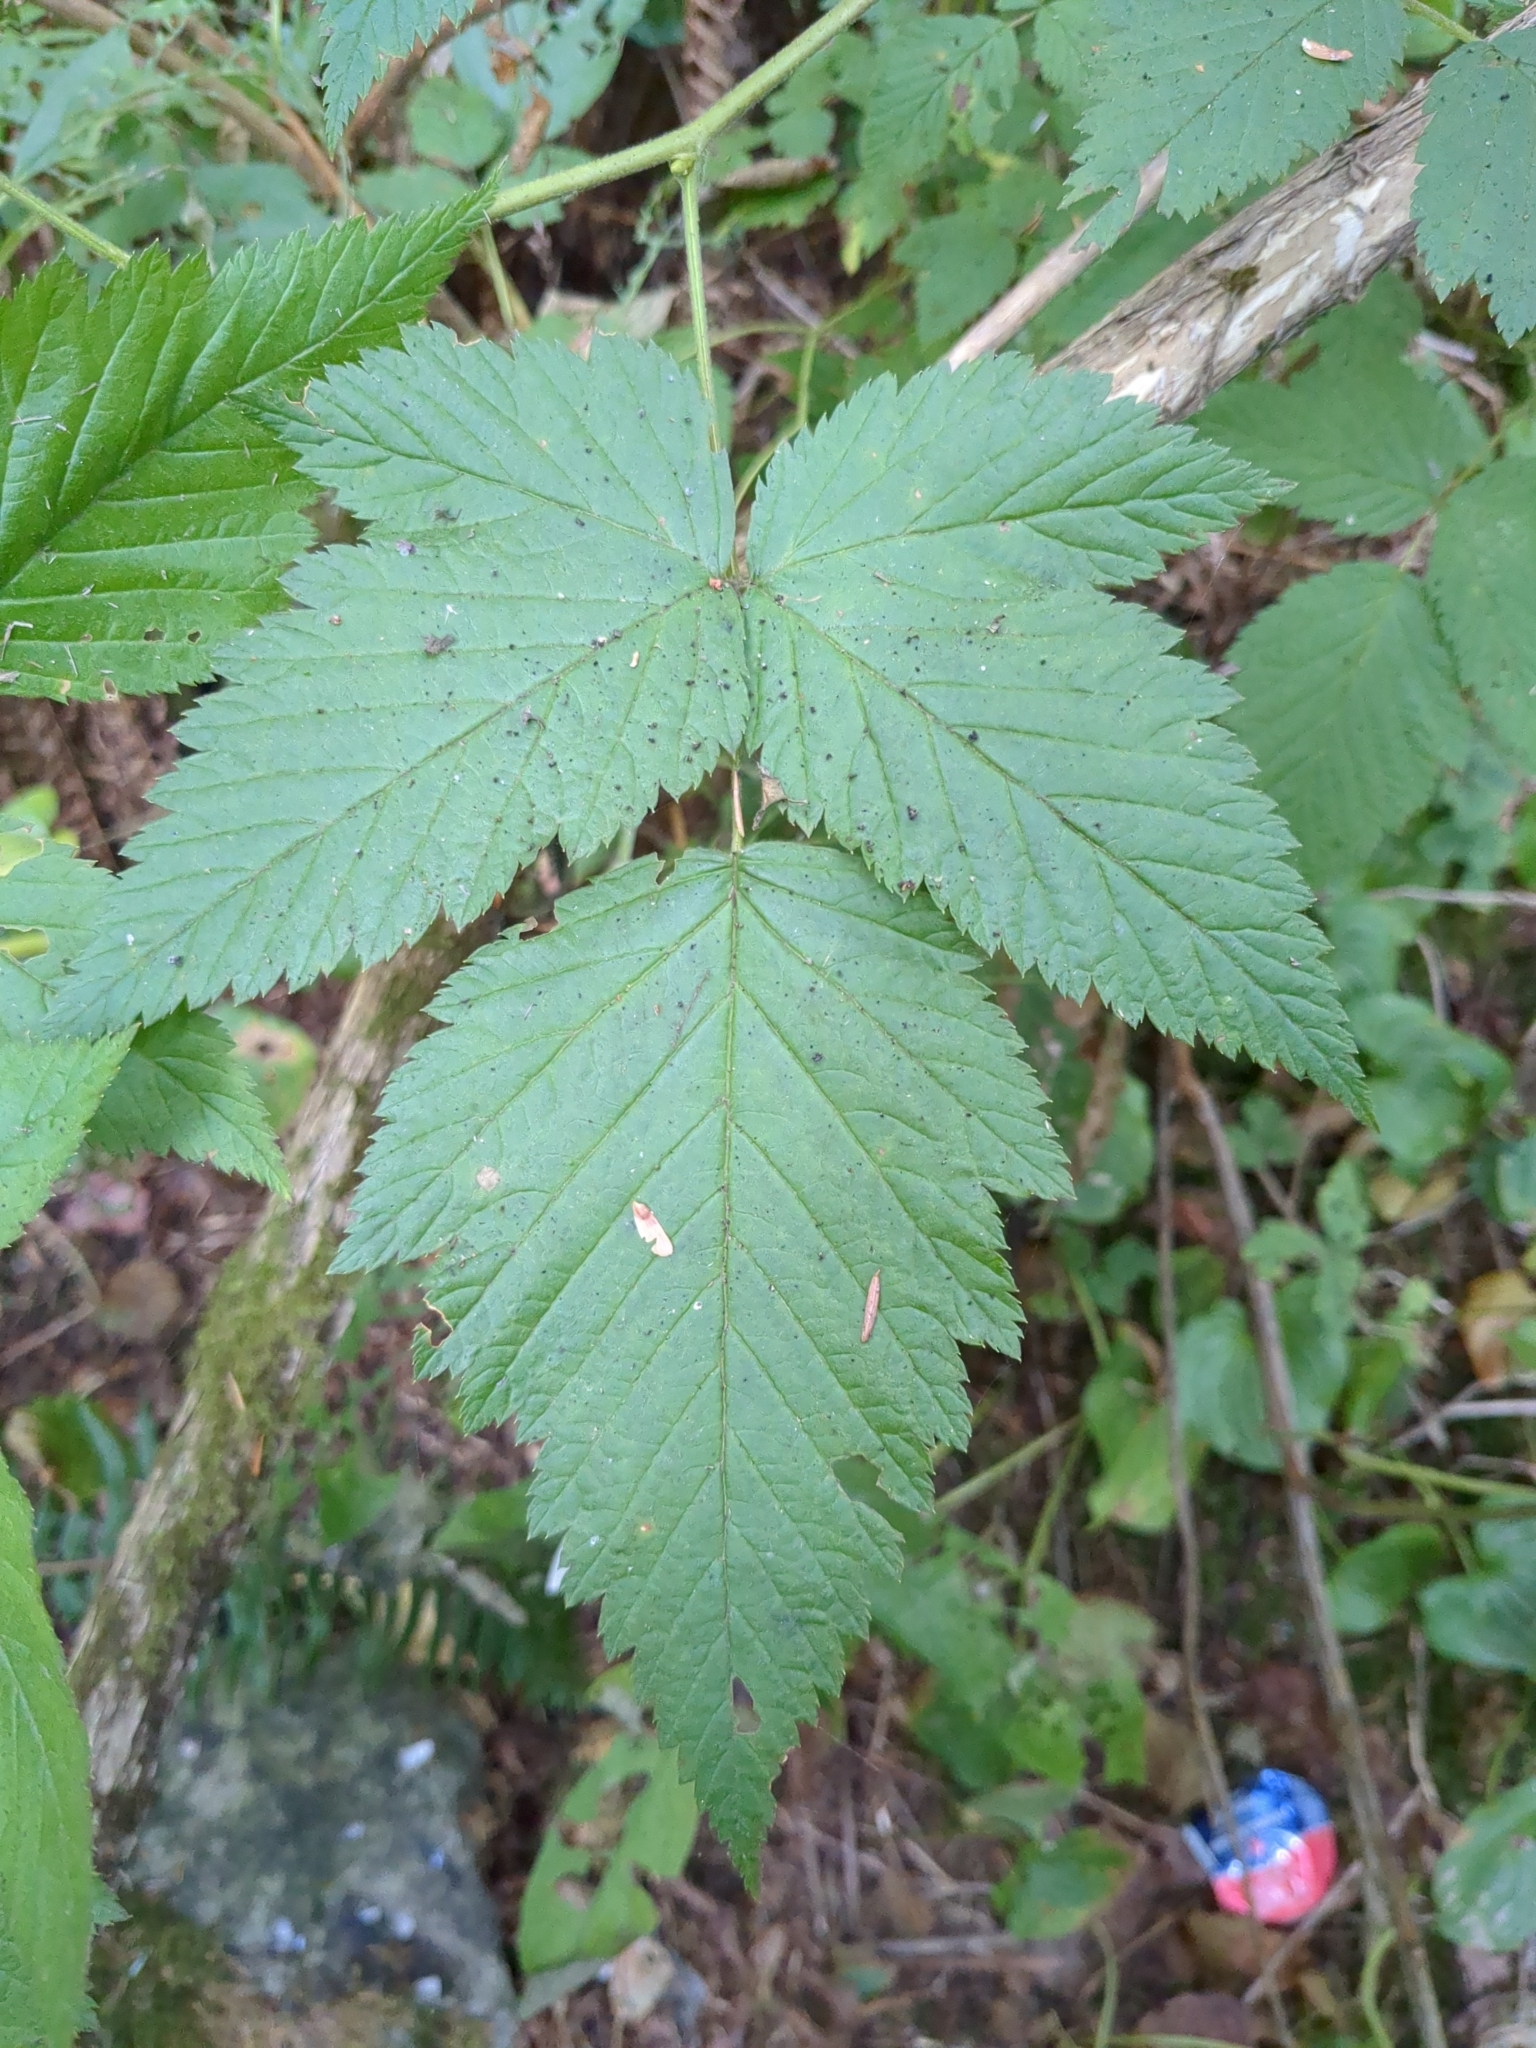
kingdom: Plantae
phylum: Tracheophyta
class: Magnoliopsida
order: Rosales
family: Rosaceae
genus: Rubus
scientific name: Rubus spectabilis
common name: Salmonberry
